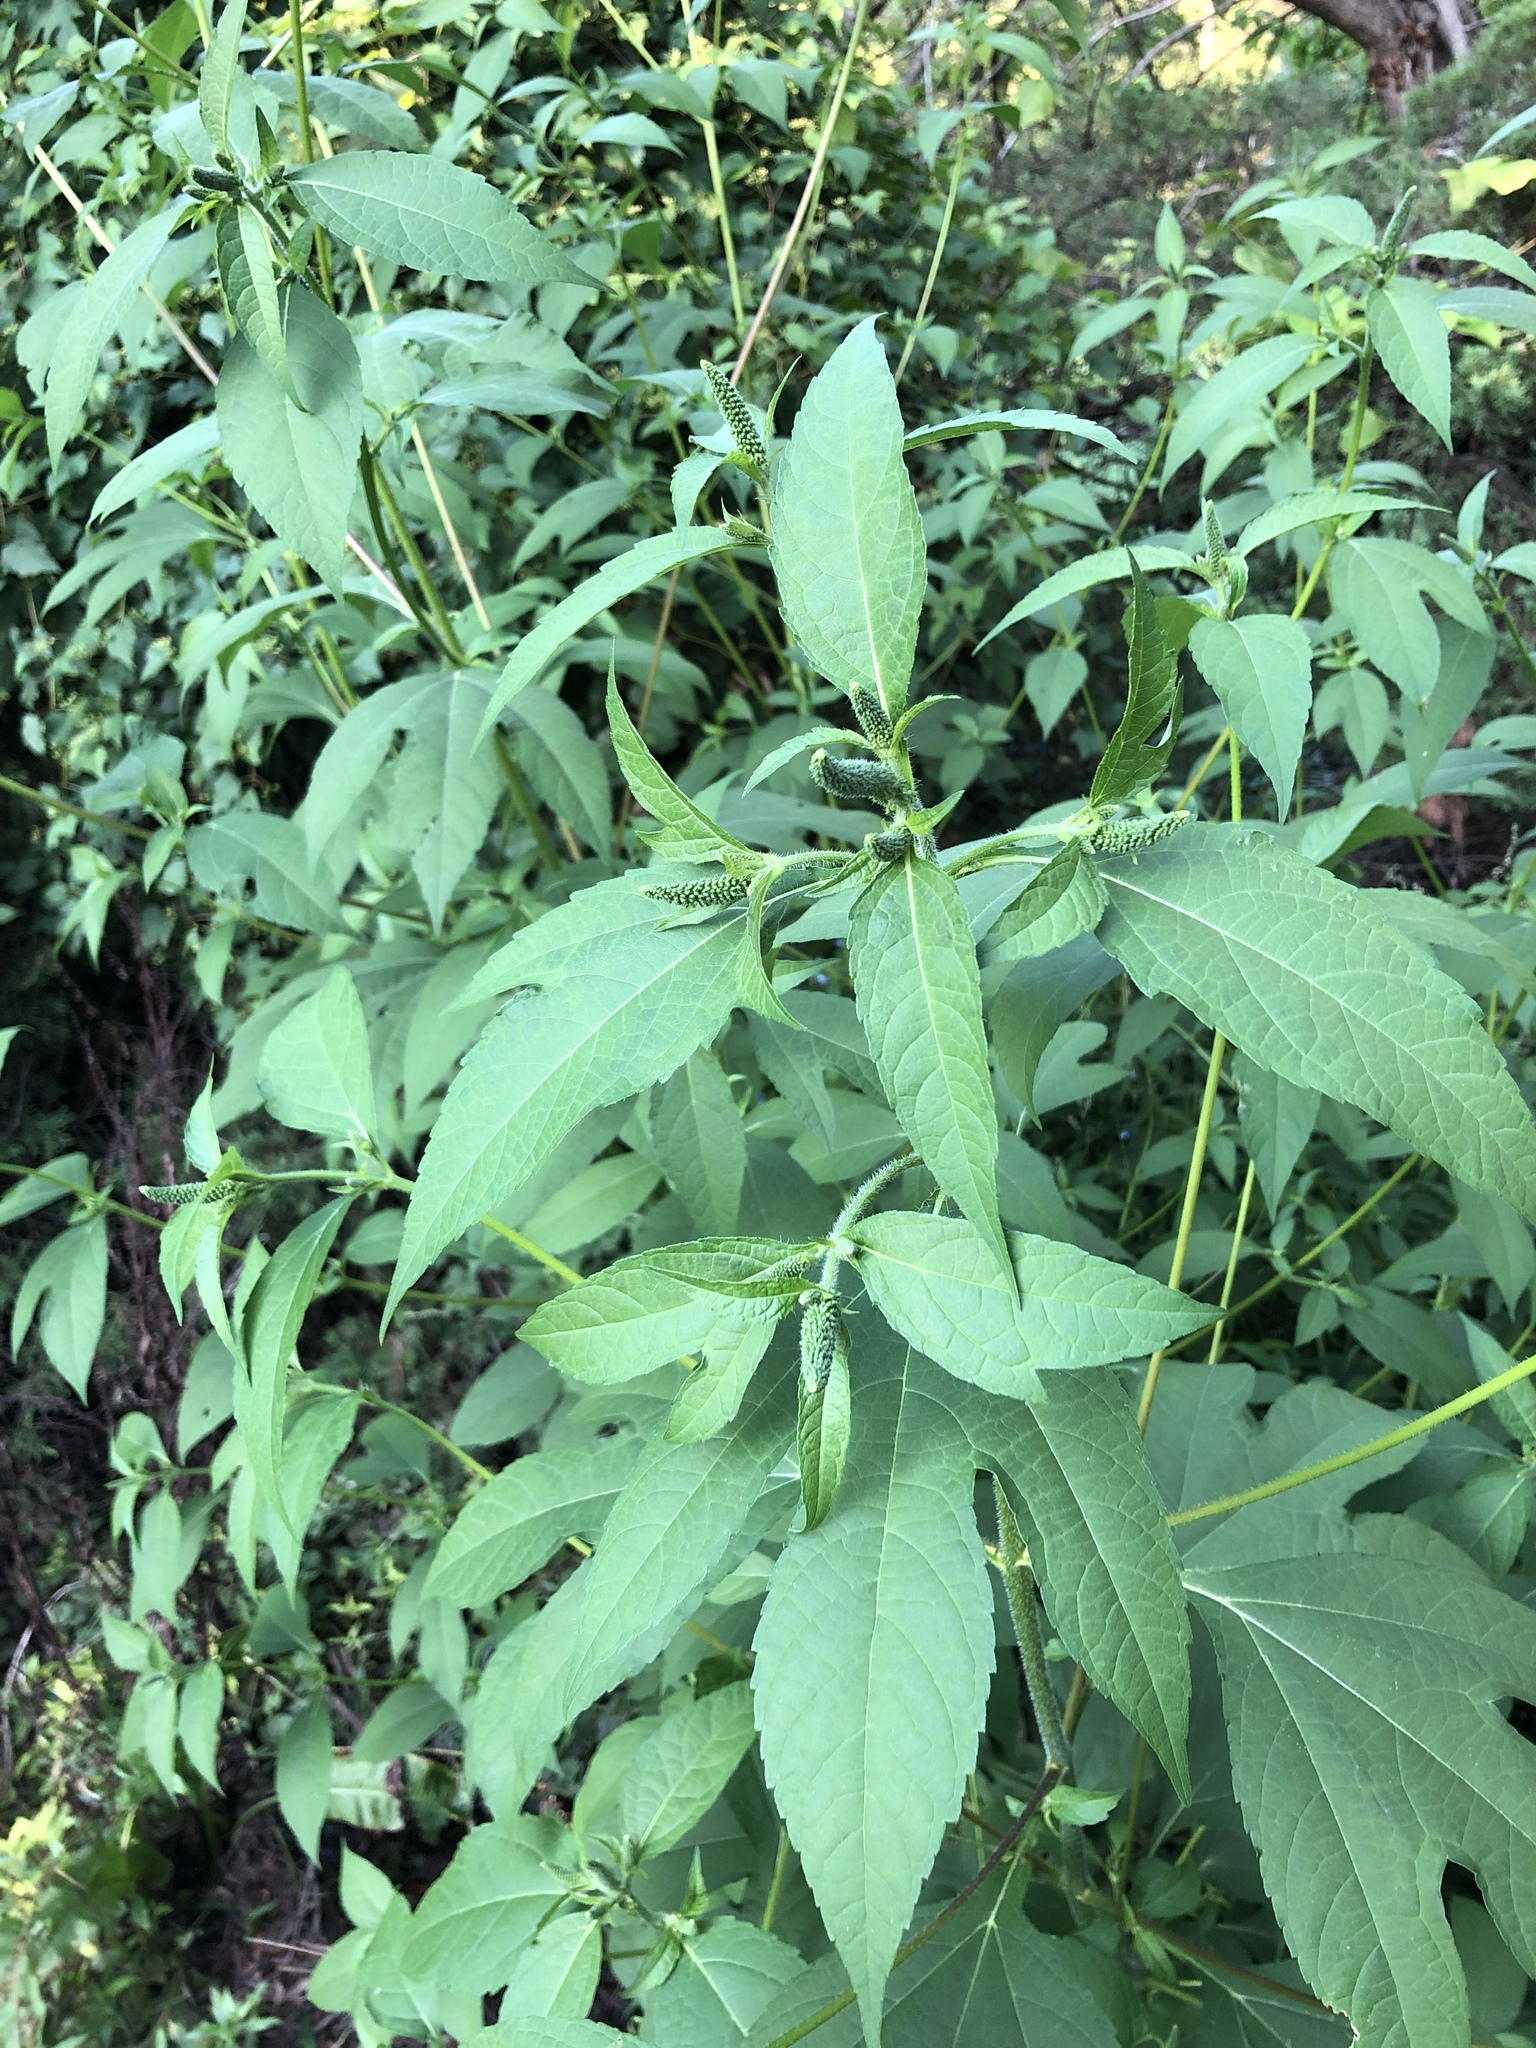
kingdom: Plantae
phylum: Tracheophyta
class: Magnoliopsida
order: Asterales
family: Asteraceae
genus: Ambrosia
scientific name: Ambrosia trifida
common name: Giant ragweed
